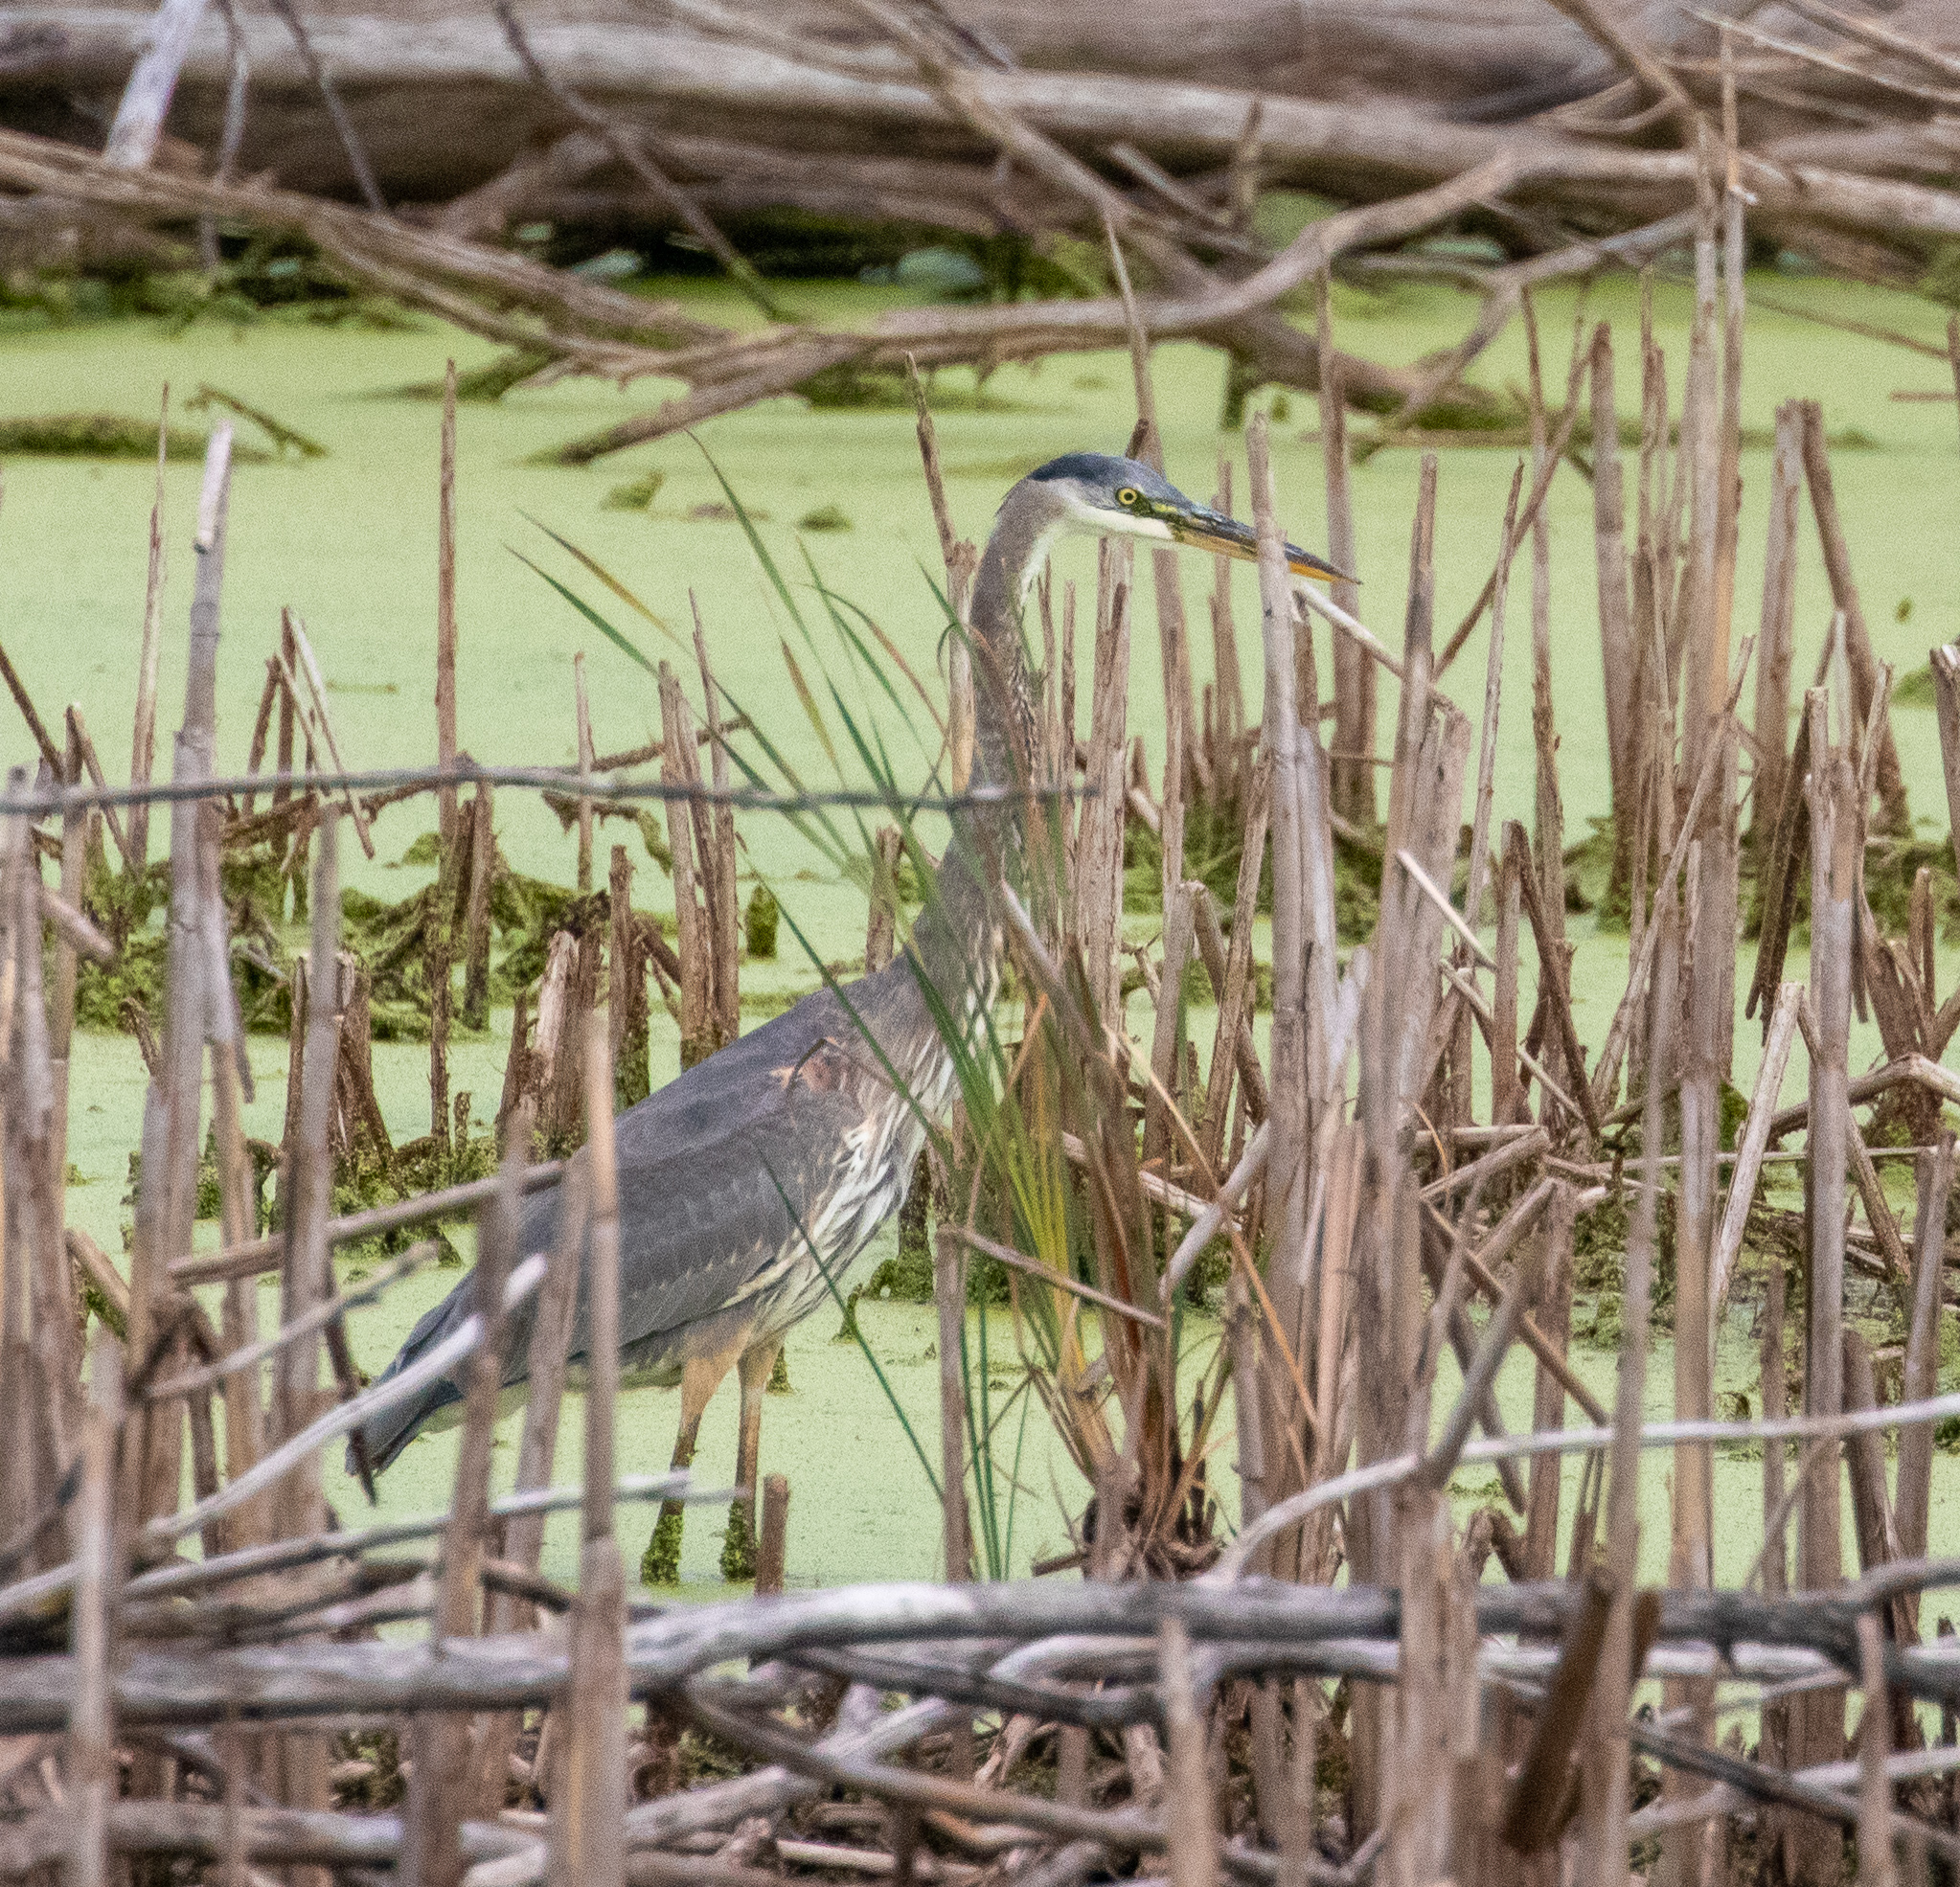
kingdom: Animalia
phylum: Chordata
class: Aves
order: Pelecaniformes
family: Ardeidae
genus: Ardea
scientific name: Ardea herodias
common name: Great blue heron
